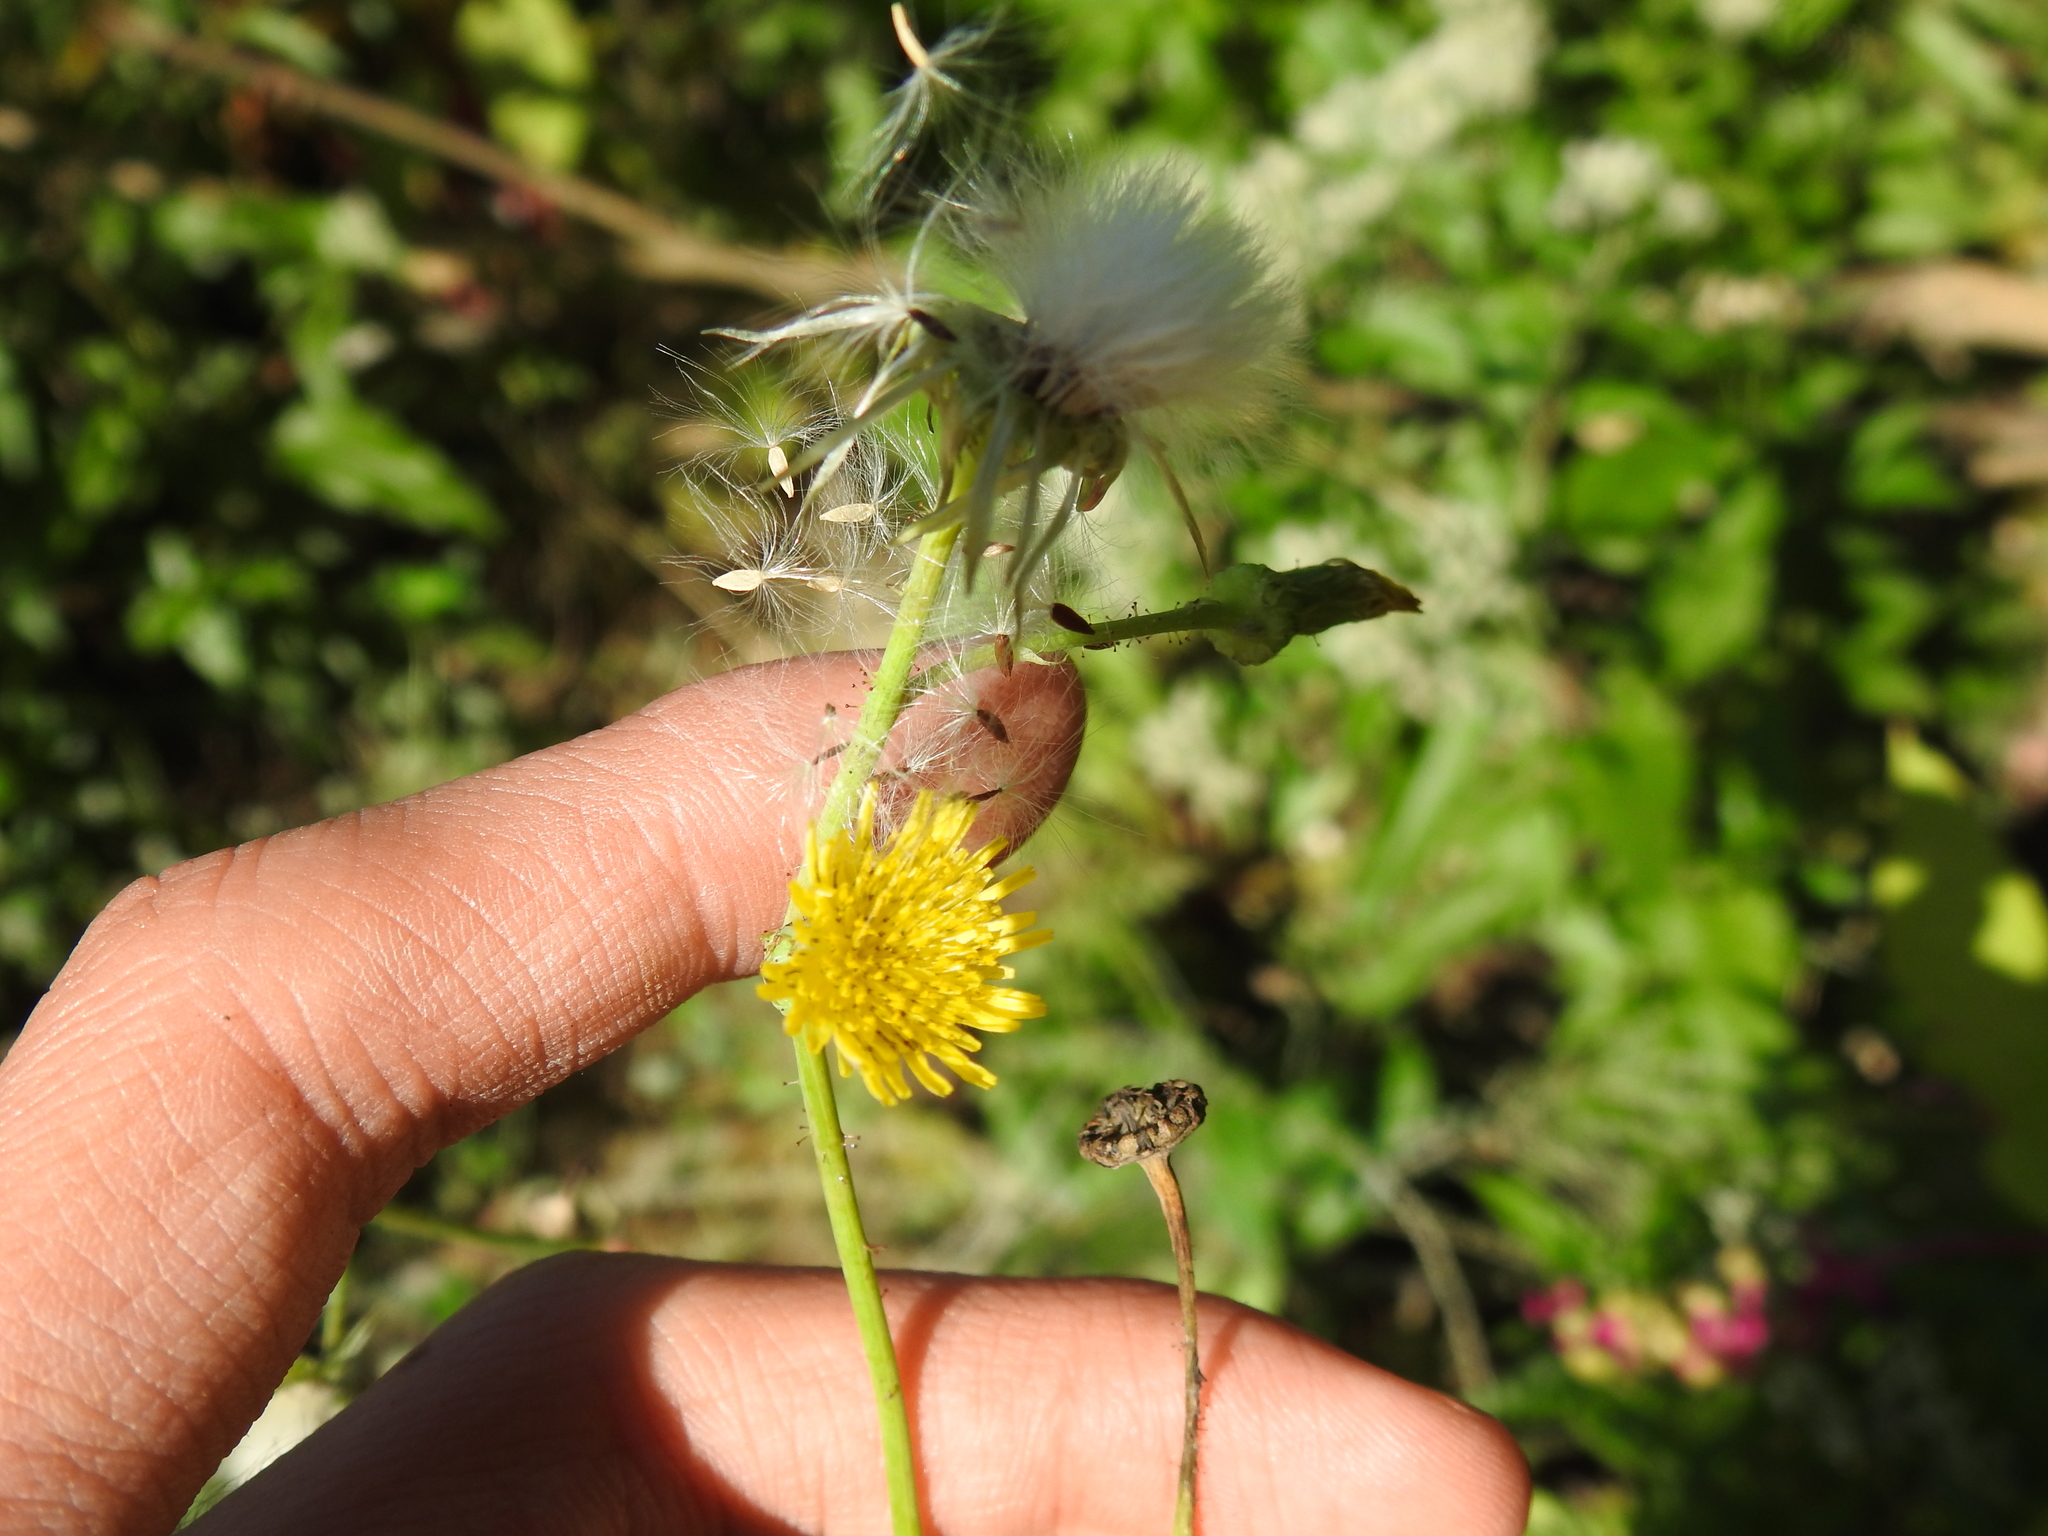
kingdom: Plantae
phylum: Tracheophyta
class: Magnoliopsida
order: Asterales
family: Asteraceae
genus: Sonchus
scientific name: Sonchus oleraceus
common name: Common sowthistle
